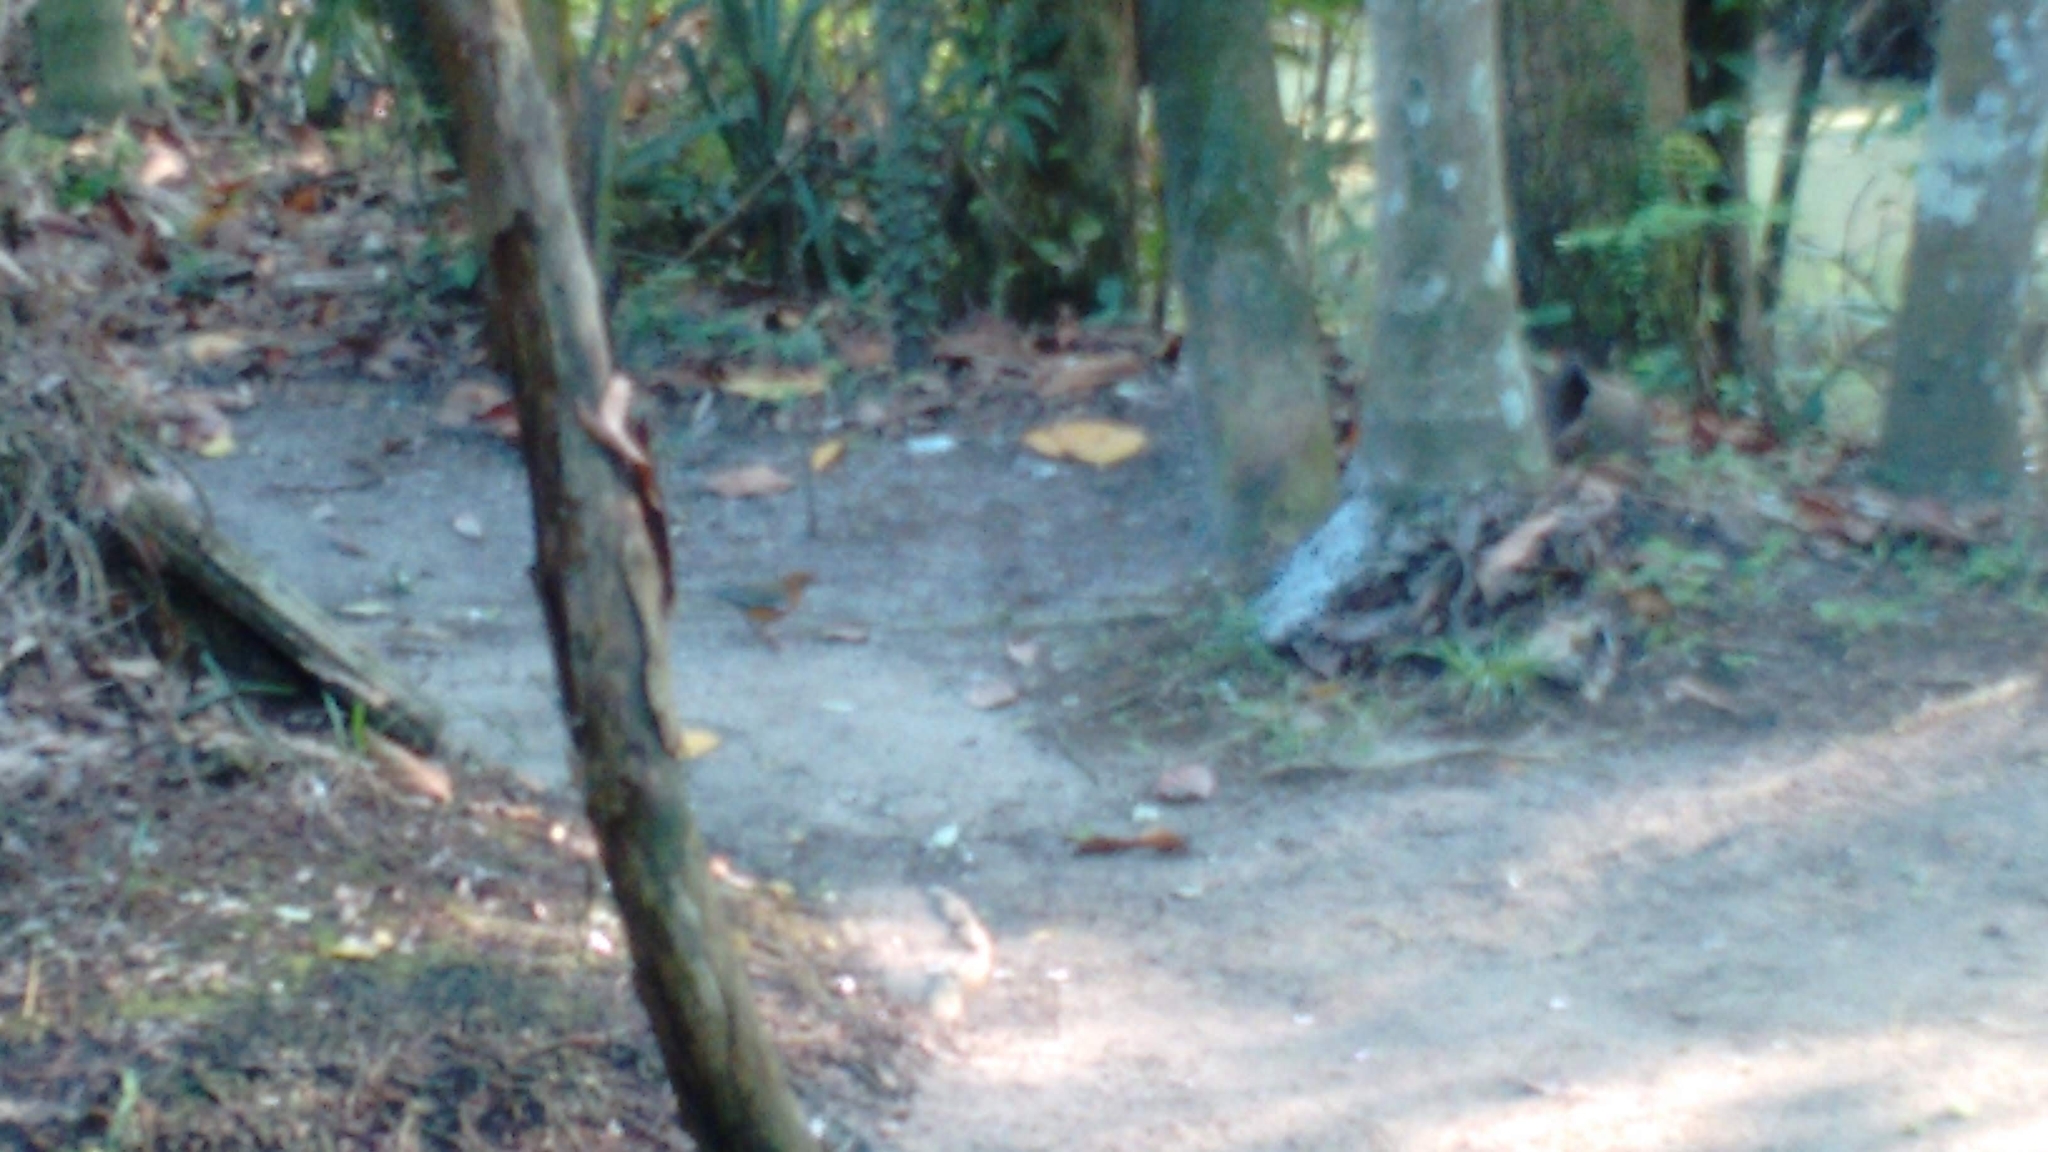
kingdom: Animalia
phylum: Chordata
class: Aves
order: Passeriformes
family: Turdidae
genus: Geokichla
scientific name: Geokichla citrina
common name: Orange-headed thrush
